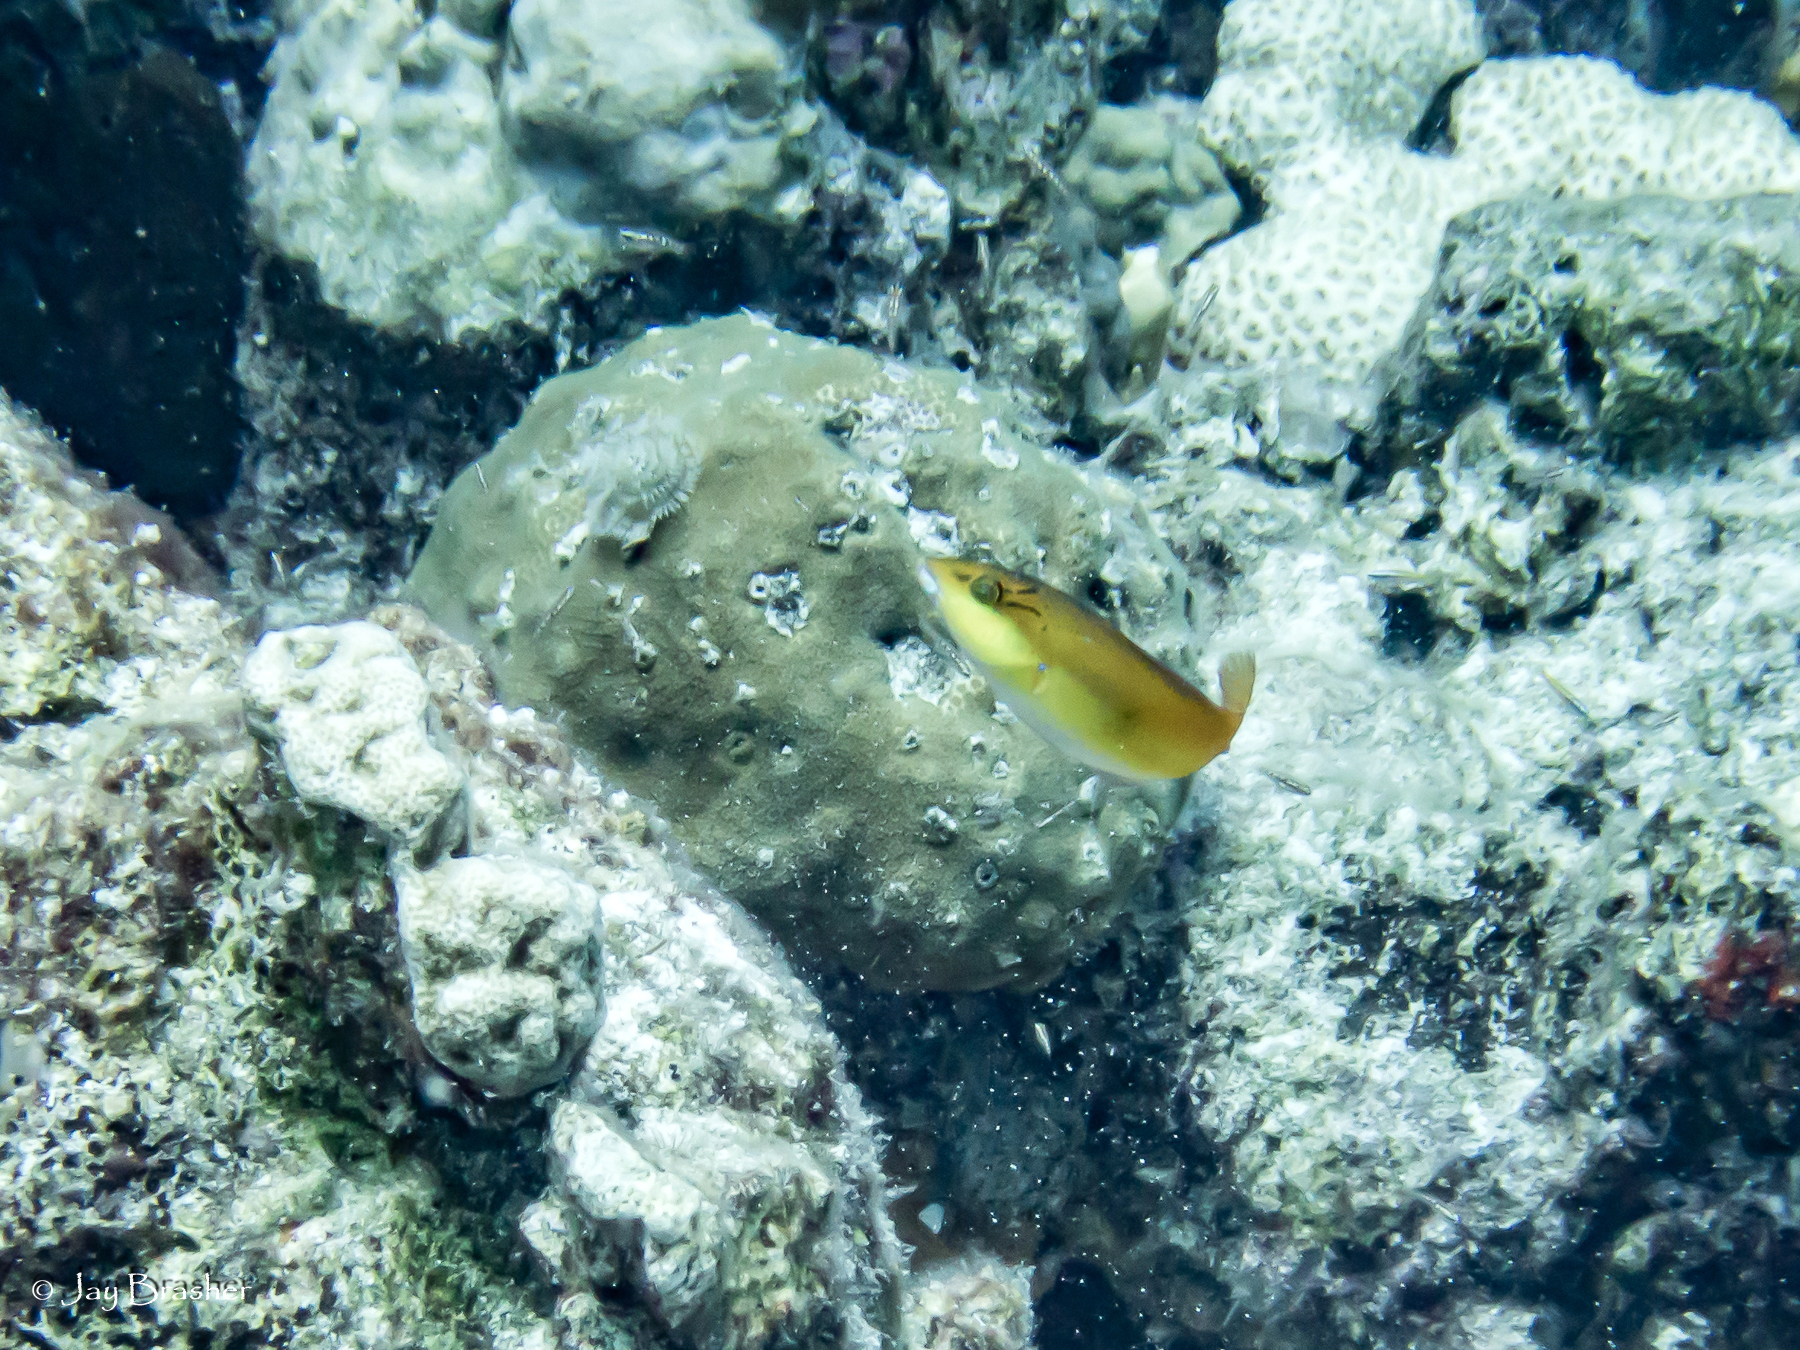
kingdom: Animalia
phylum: Chordata
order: Perciformes
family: Labridae
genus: Halichoeres
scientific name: Halichoeres garnoti
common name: Yellowhead wrasse
